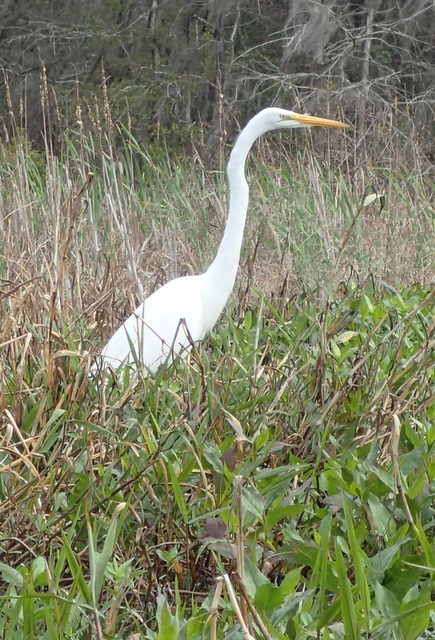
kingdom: Animalia
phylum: Chordata
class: Aves
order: Pelecaniformes
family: Ardeidae
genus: Ardea
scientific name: Ardea alba
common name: Great egret
